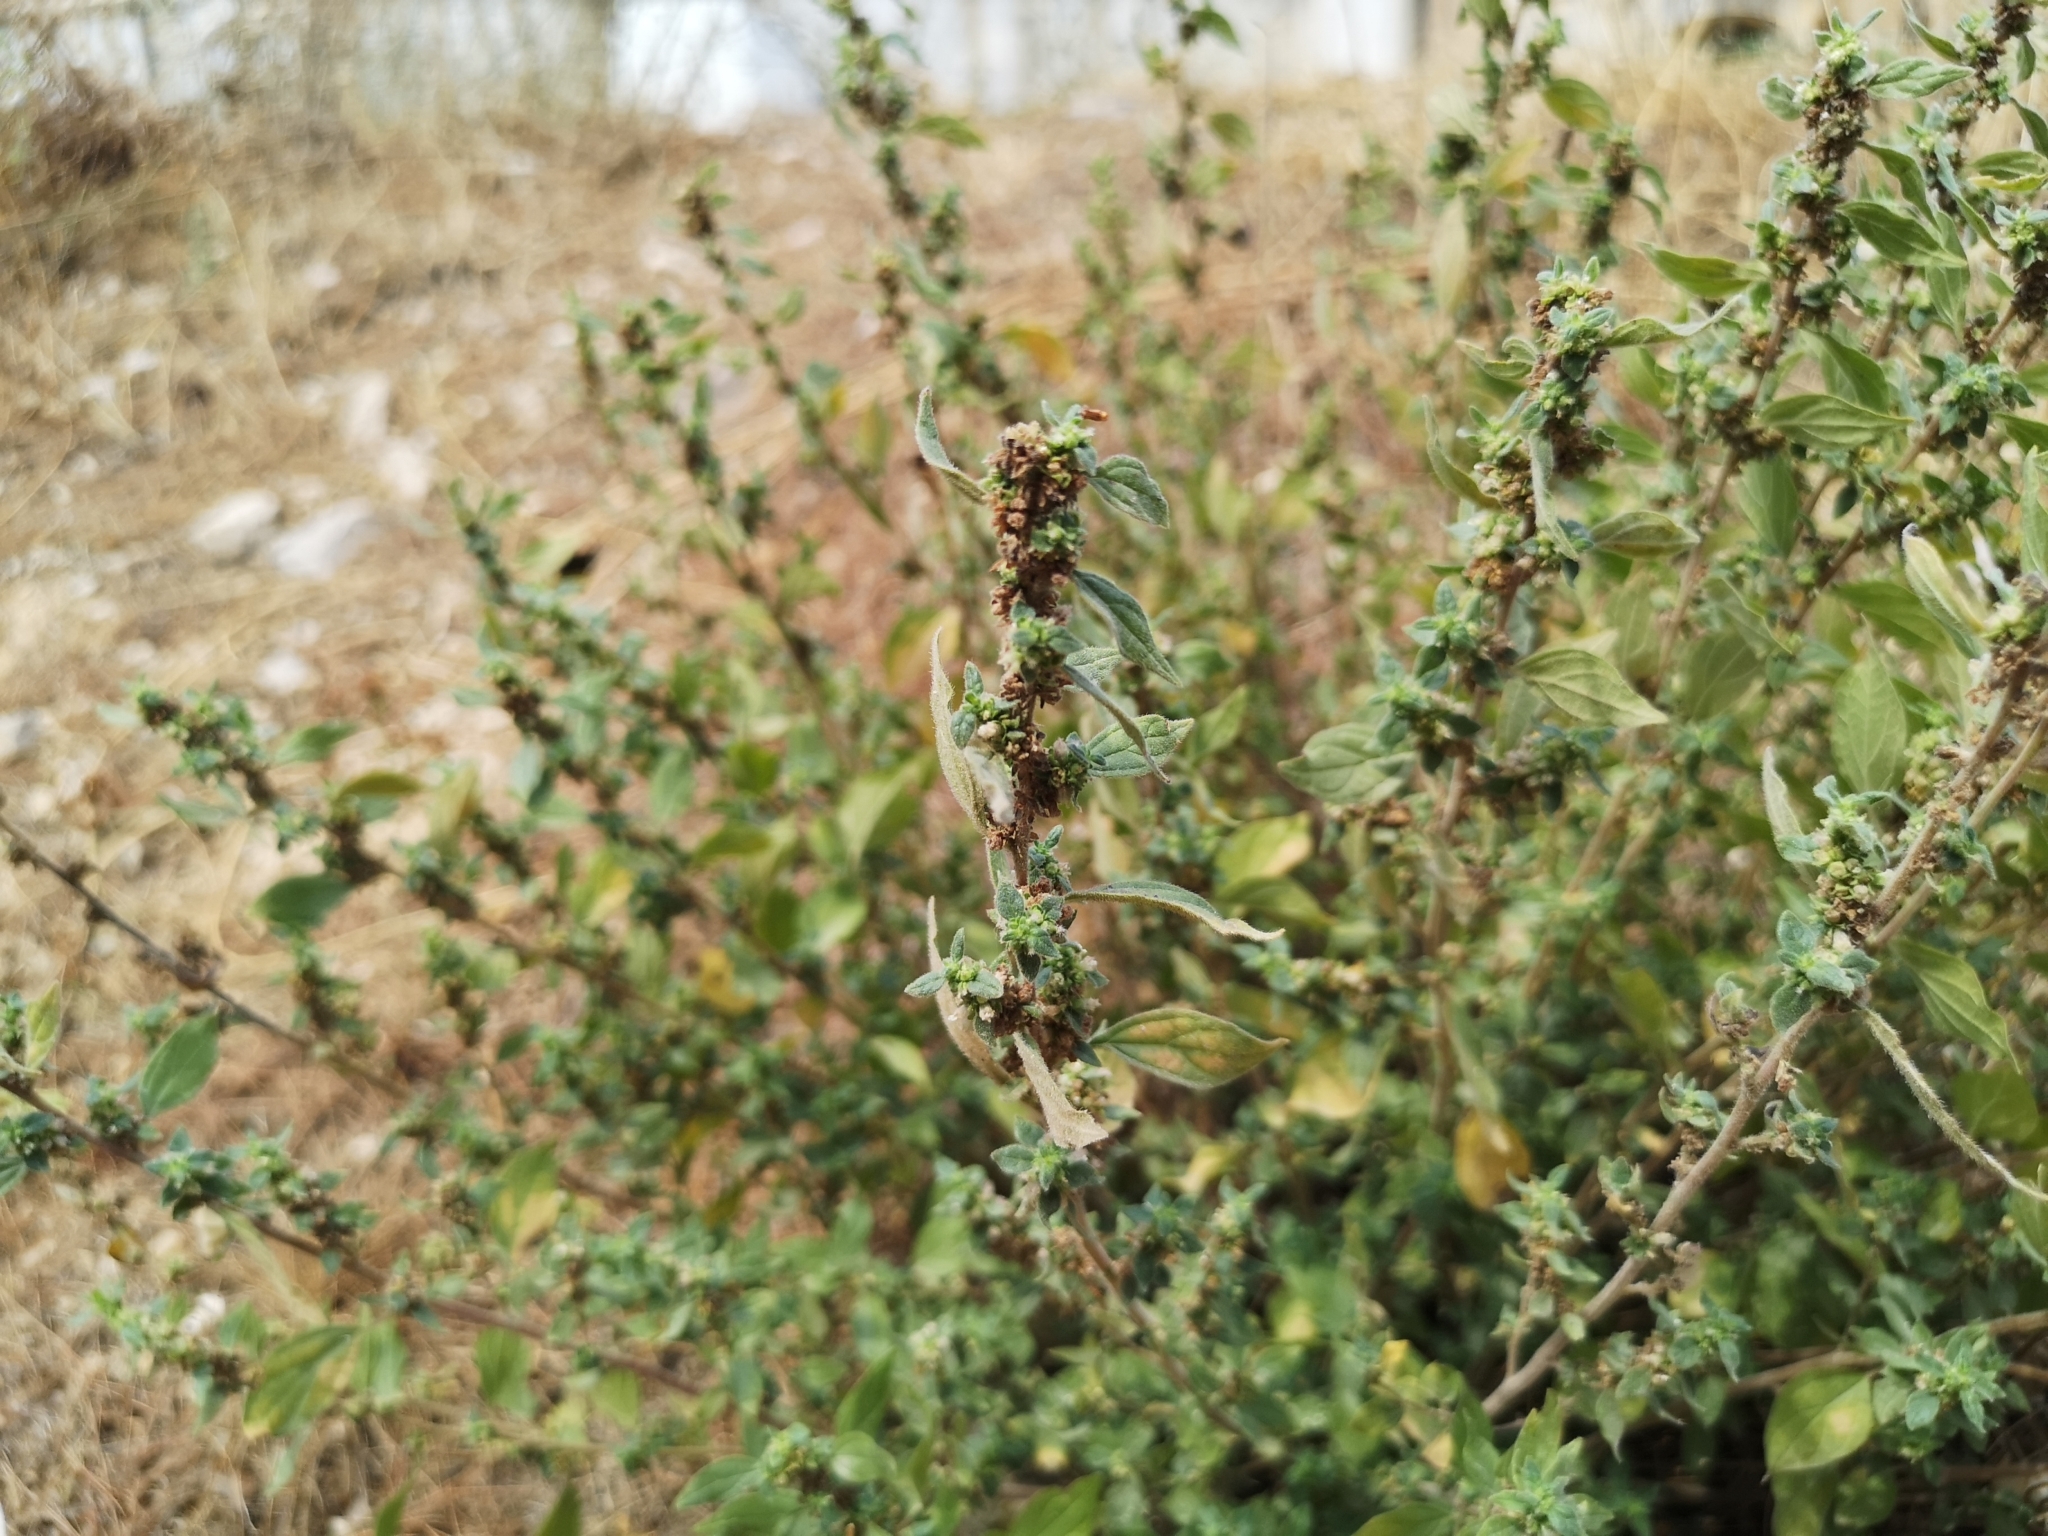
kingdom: Plantae
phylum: Tracheophyta
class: Magnoliopsida
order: Rosales
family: Urticaceae
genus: Parietaria
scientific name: Parietaria judaica
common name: Pellitory-of-the-wall
